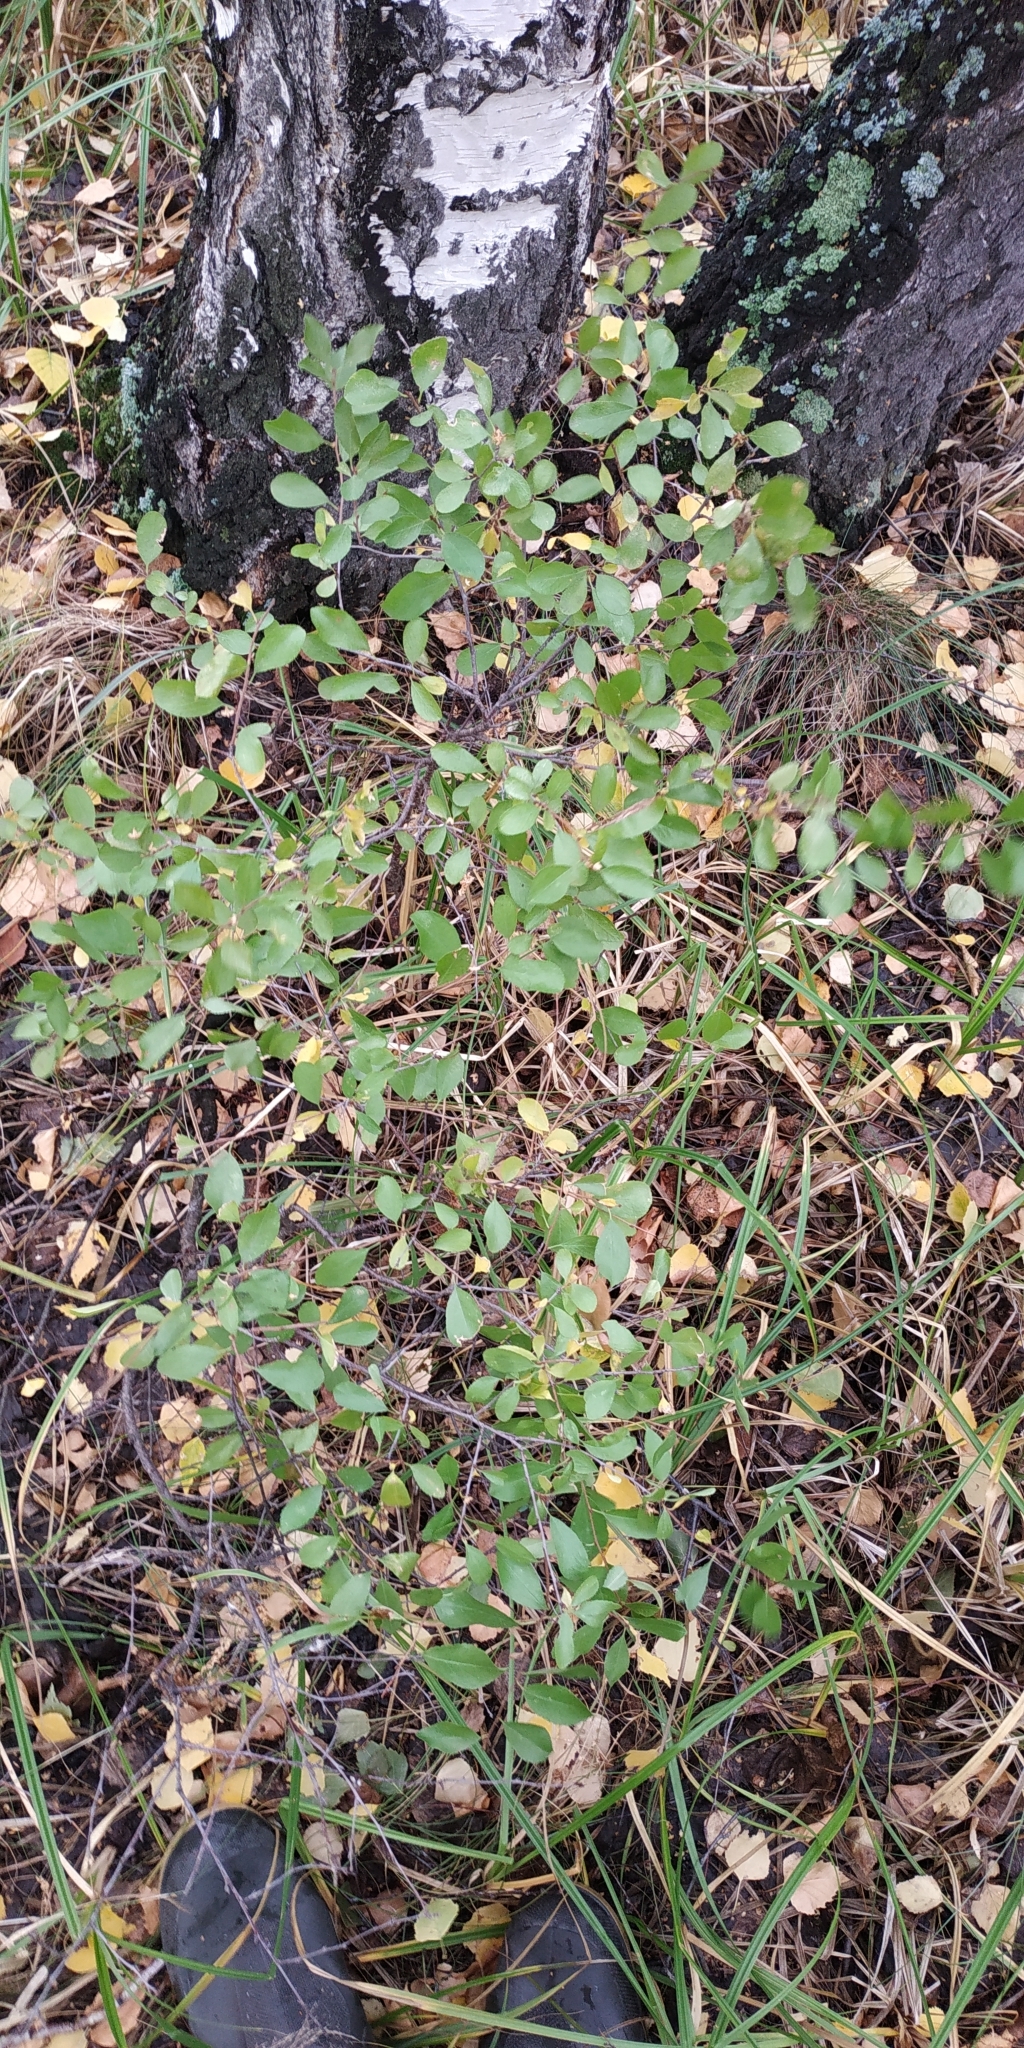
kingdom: Plantae
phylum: Tracheophyta
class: Magnoliopsida
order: Rosales
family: Rosaceae
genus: Prunus
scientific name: Prunus fruticosa
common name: European dwarf cherry
